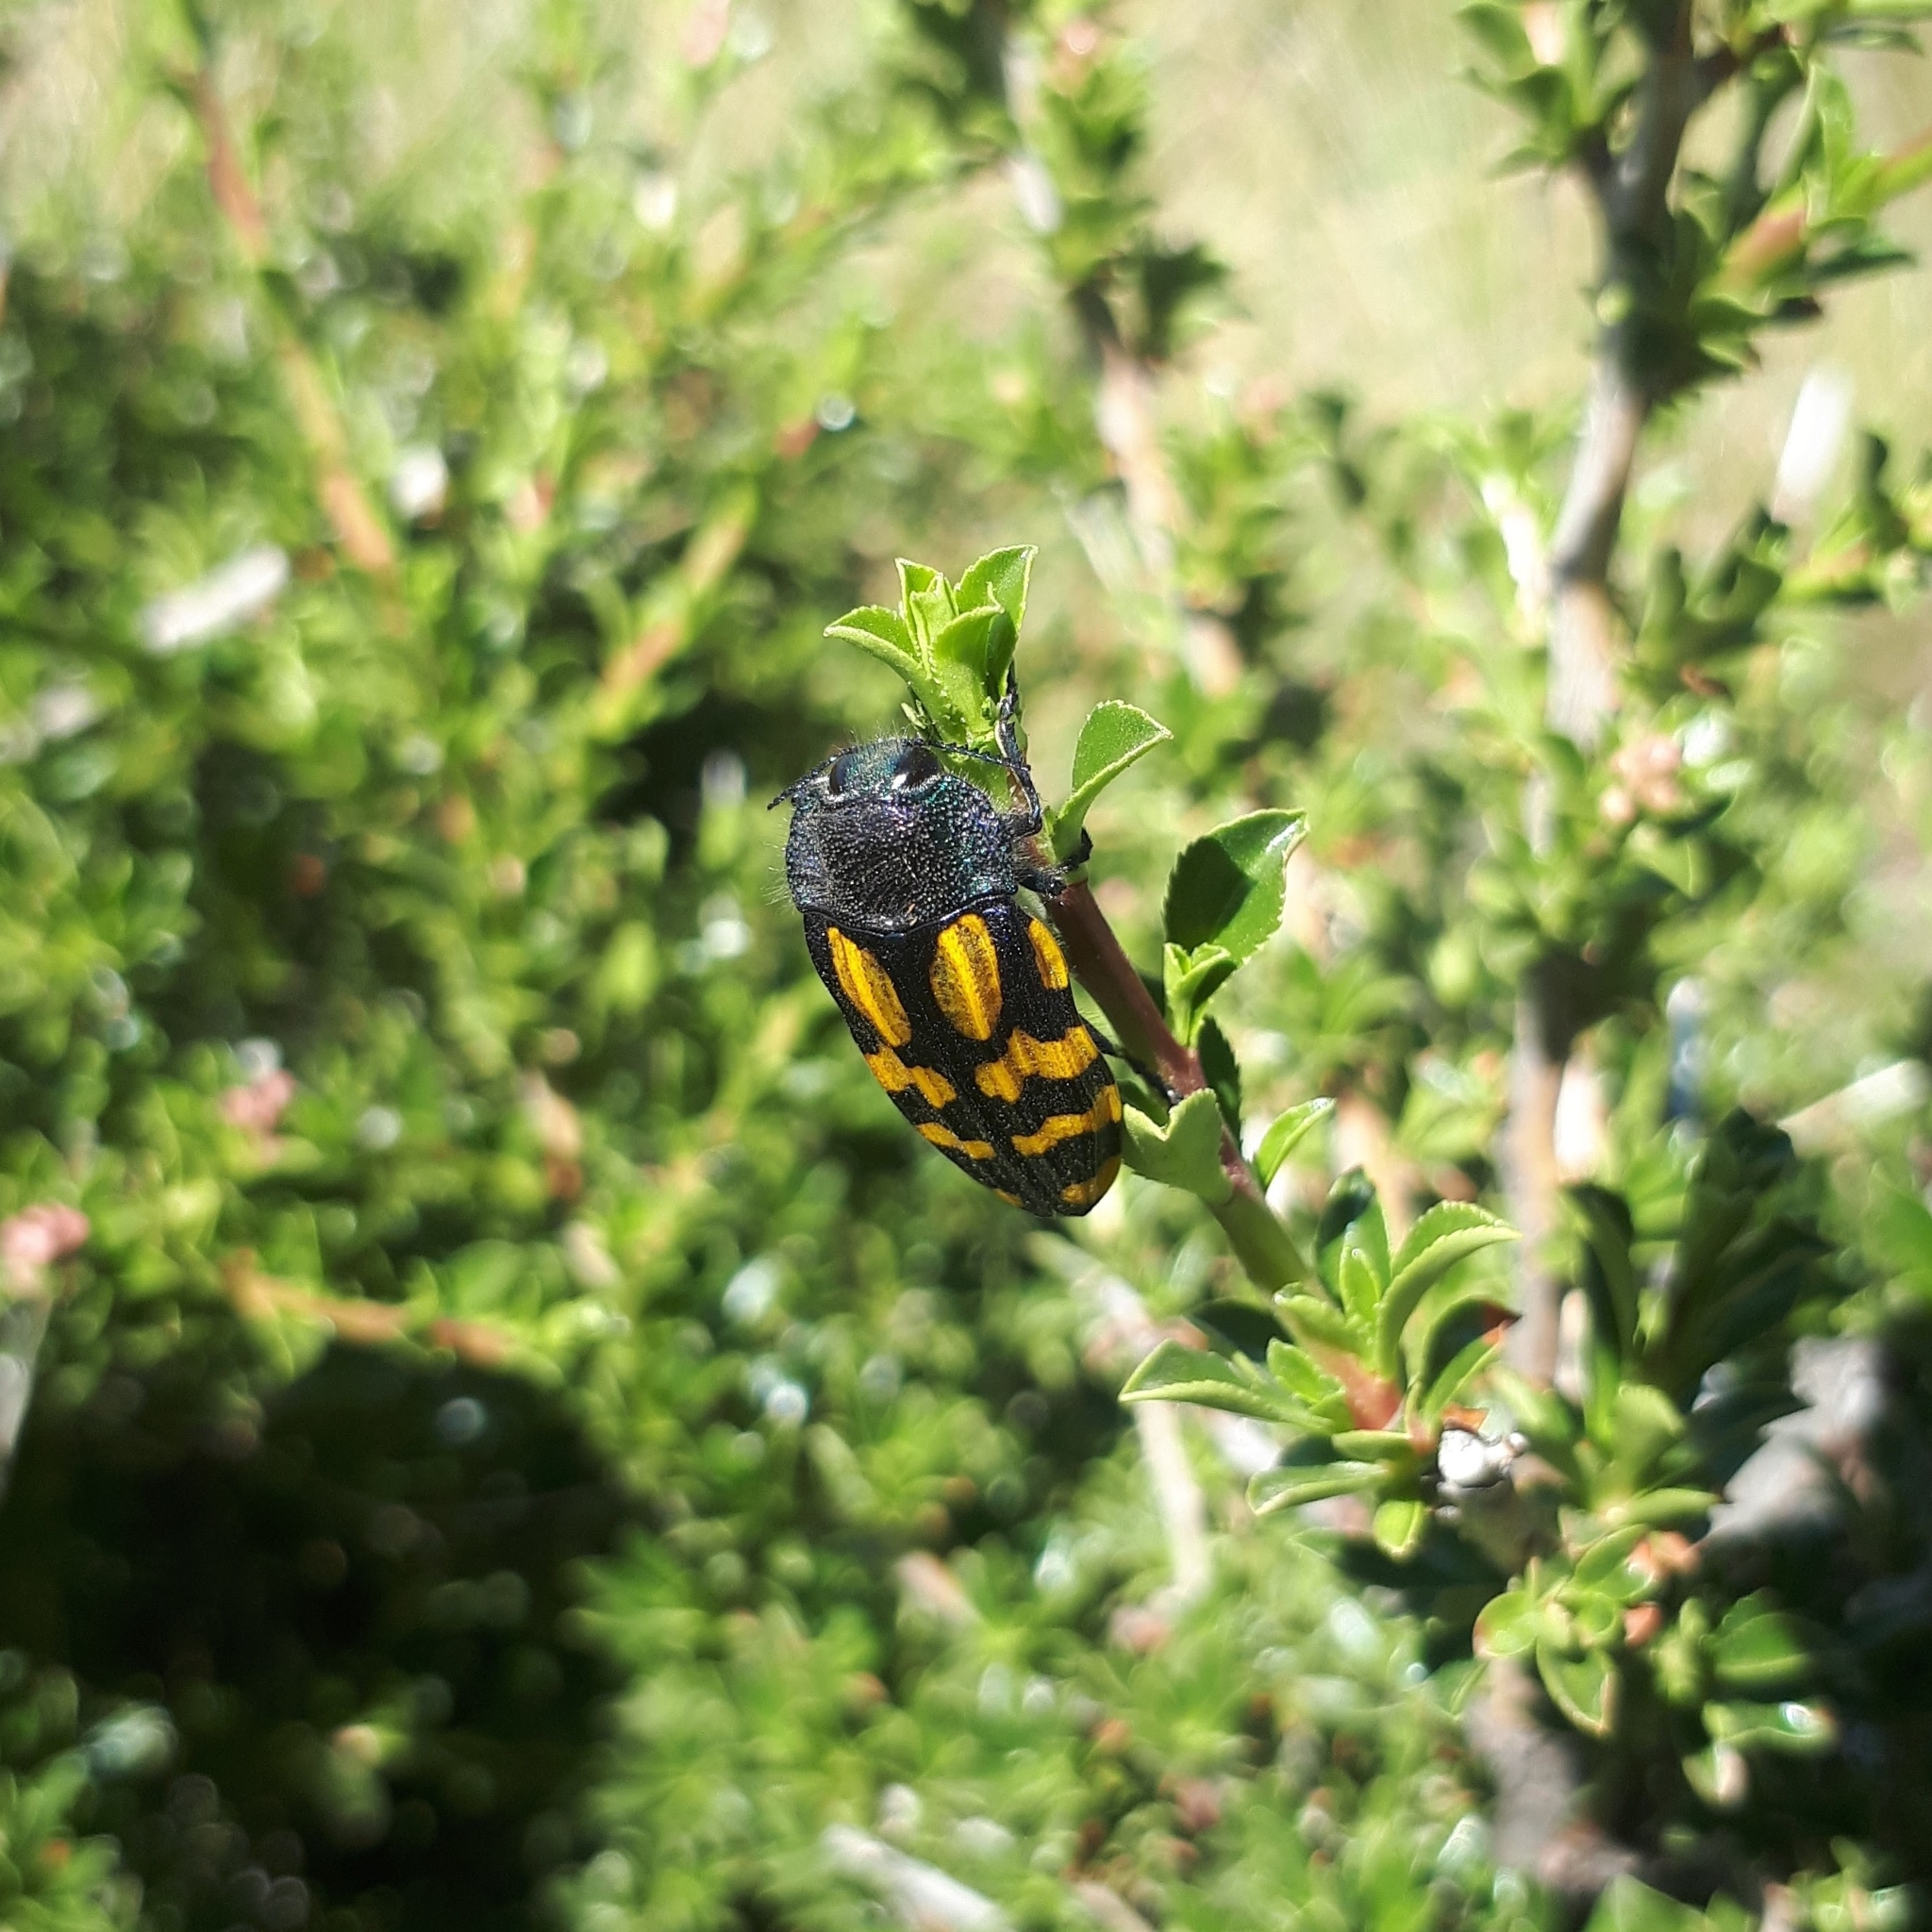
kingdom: Animalia
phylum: Arthropoda
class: Insecta
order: Coleoptera
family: Buprestidae
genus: Conognatha
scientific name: Conognatha germaini
